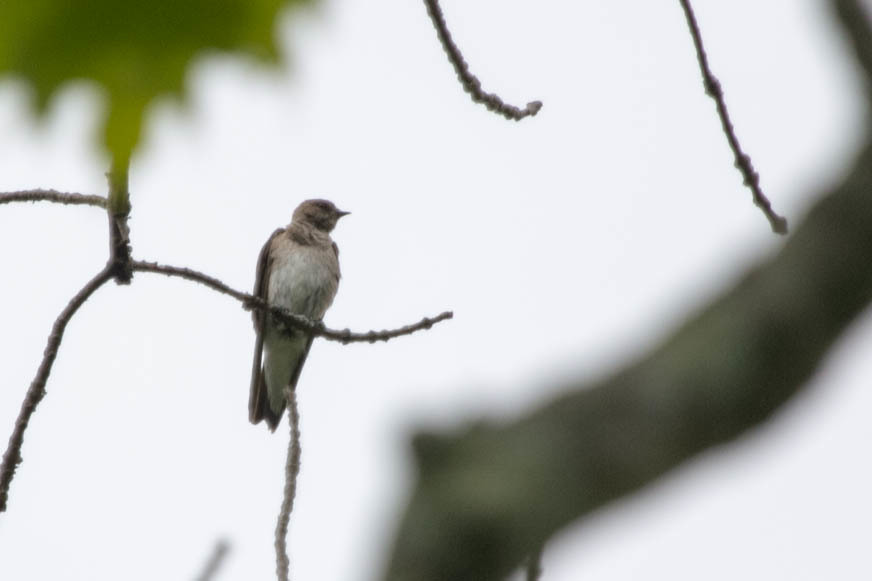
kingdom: Animalia
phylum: Chordata
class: Aves
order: Passeriformes
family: Hirundinidae
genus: Stelgidopteryx
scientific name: Stelgidopteryx serripennis
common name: Northern rough-winged swallow
